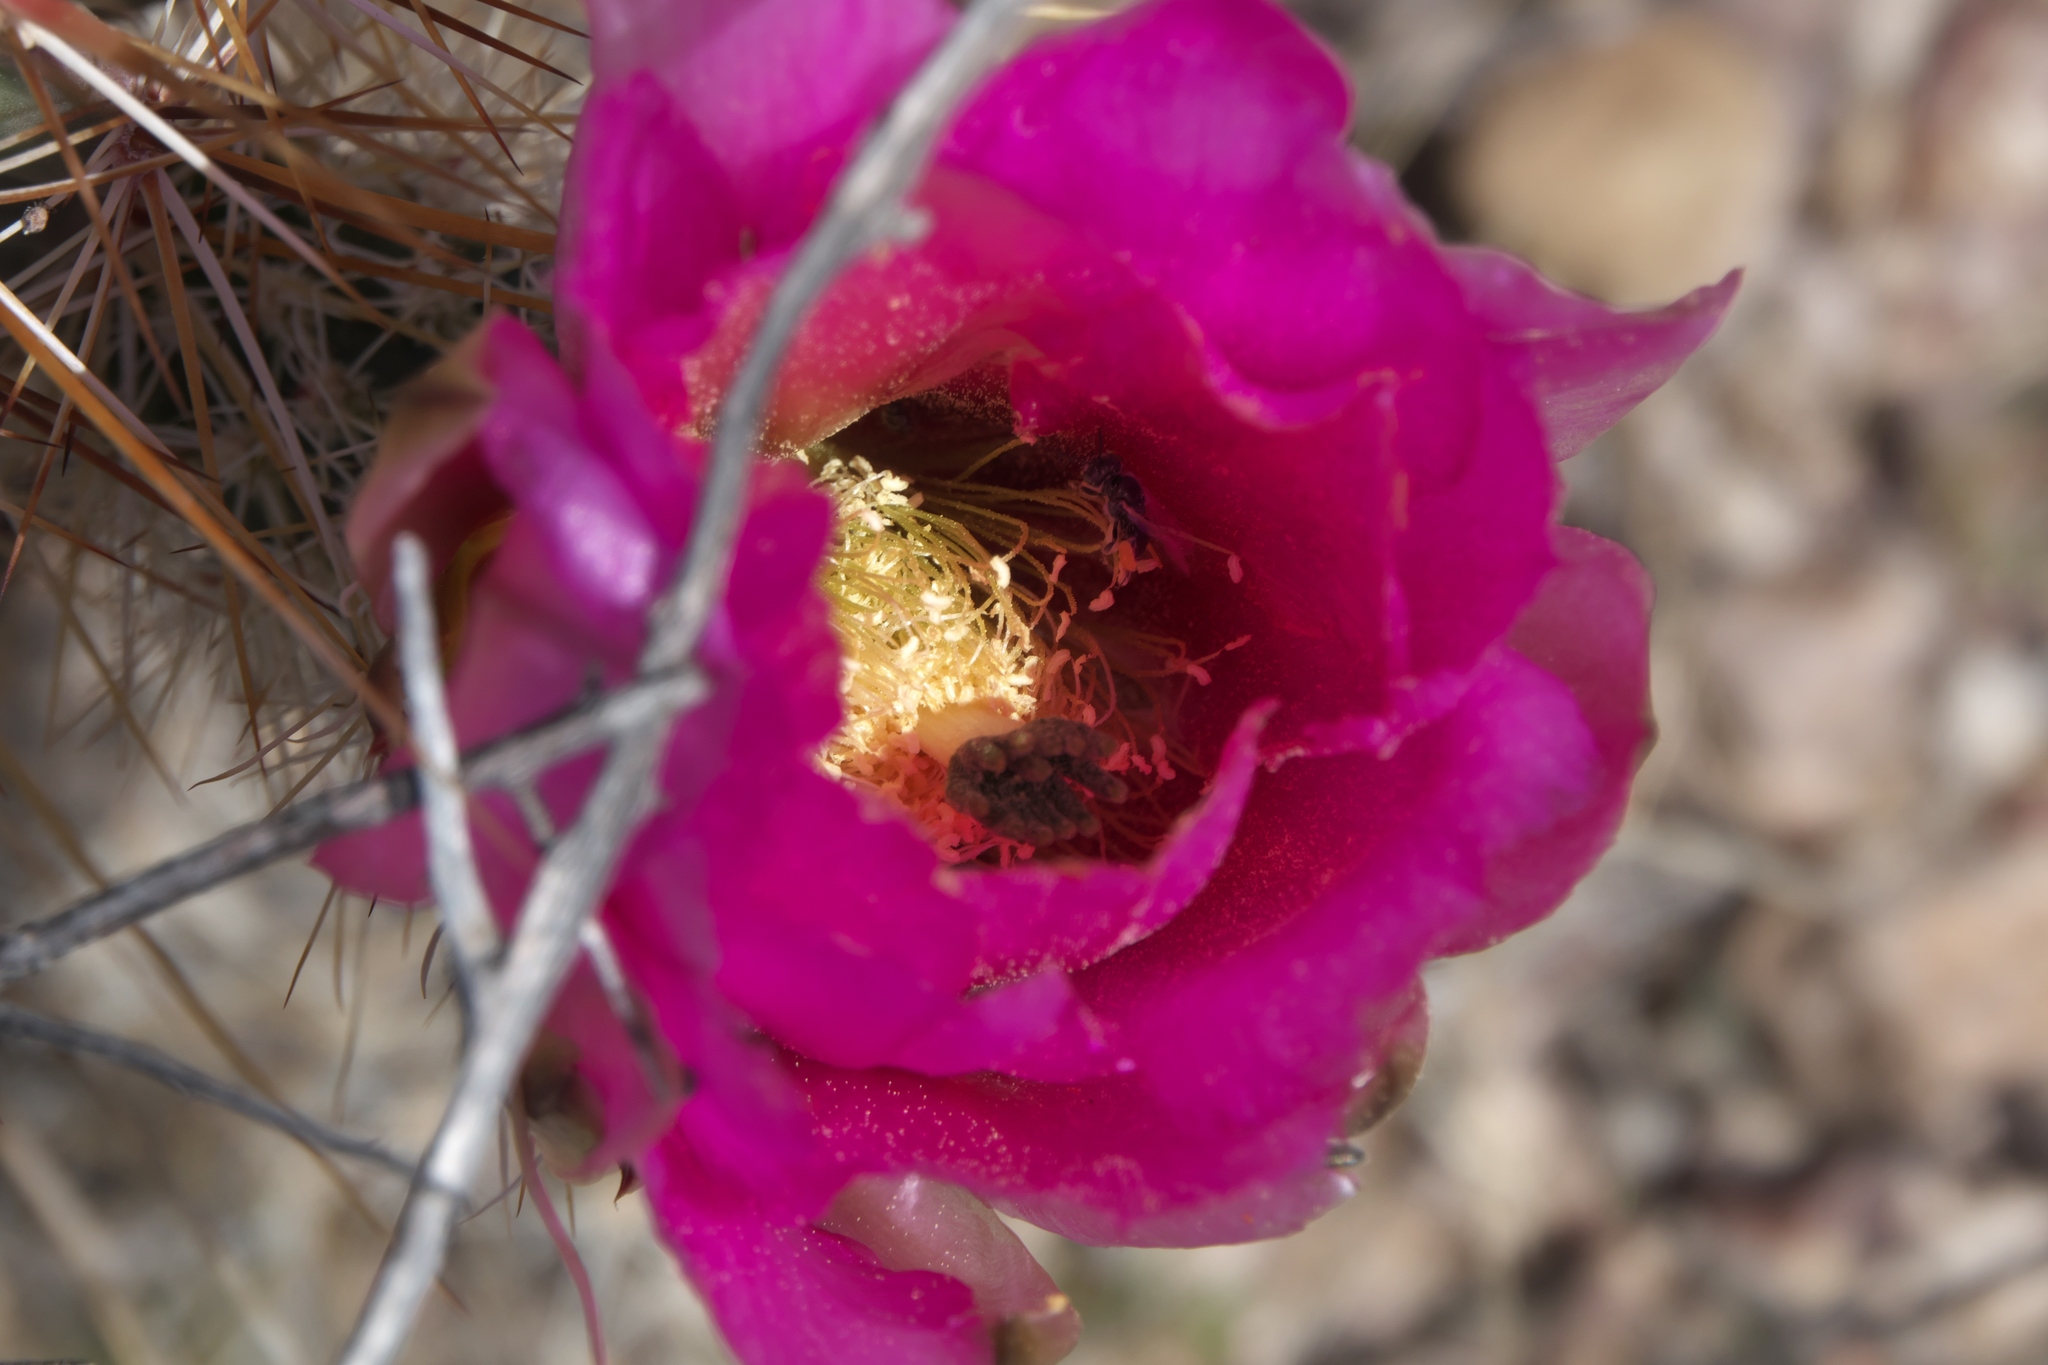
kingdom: Plantae
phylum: Tracheophyta
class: Magnoliopsida
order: Caryophyllales
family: Cactaceae
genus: Echinocereus
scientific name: Echinocereus engelmannii
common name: Engelmann's hedgehog cactus
